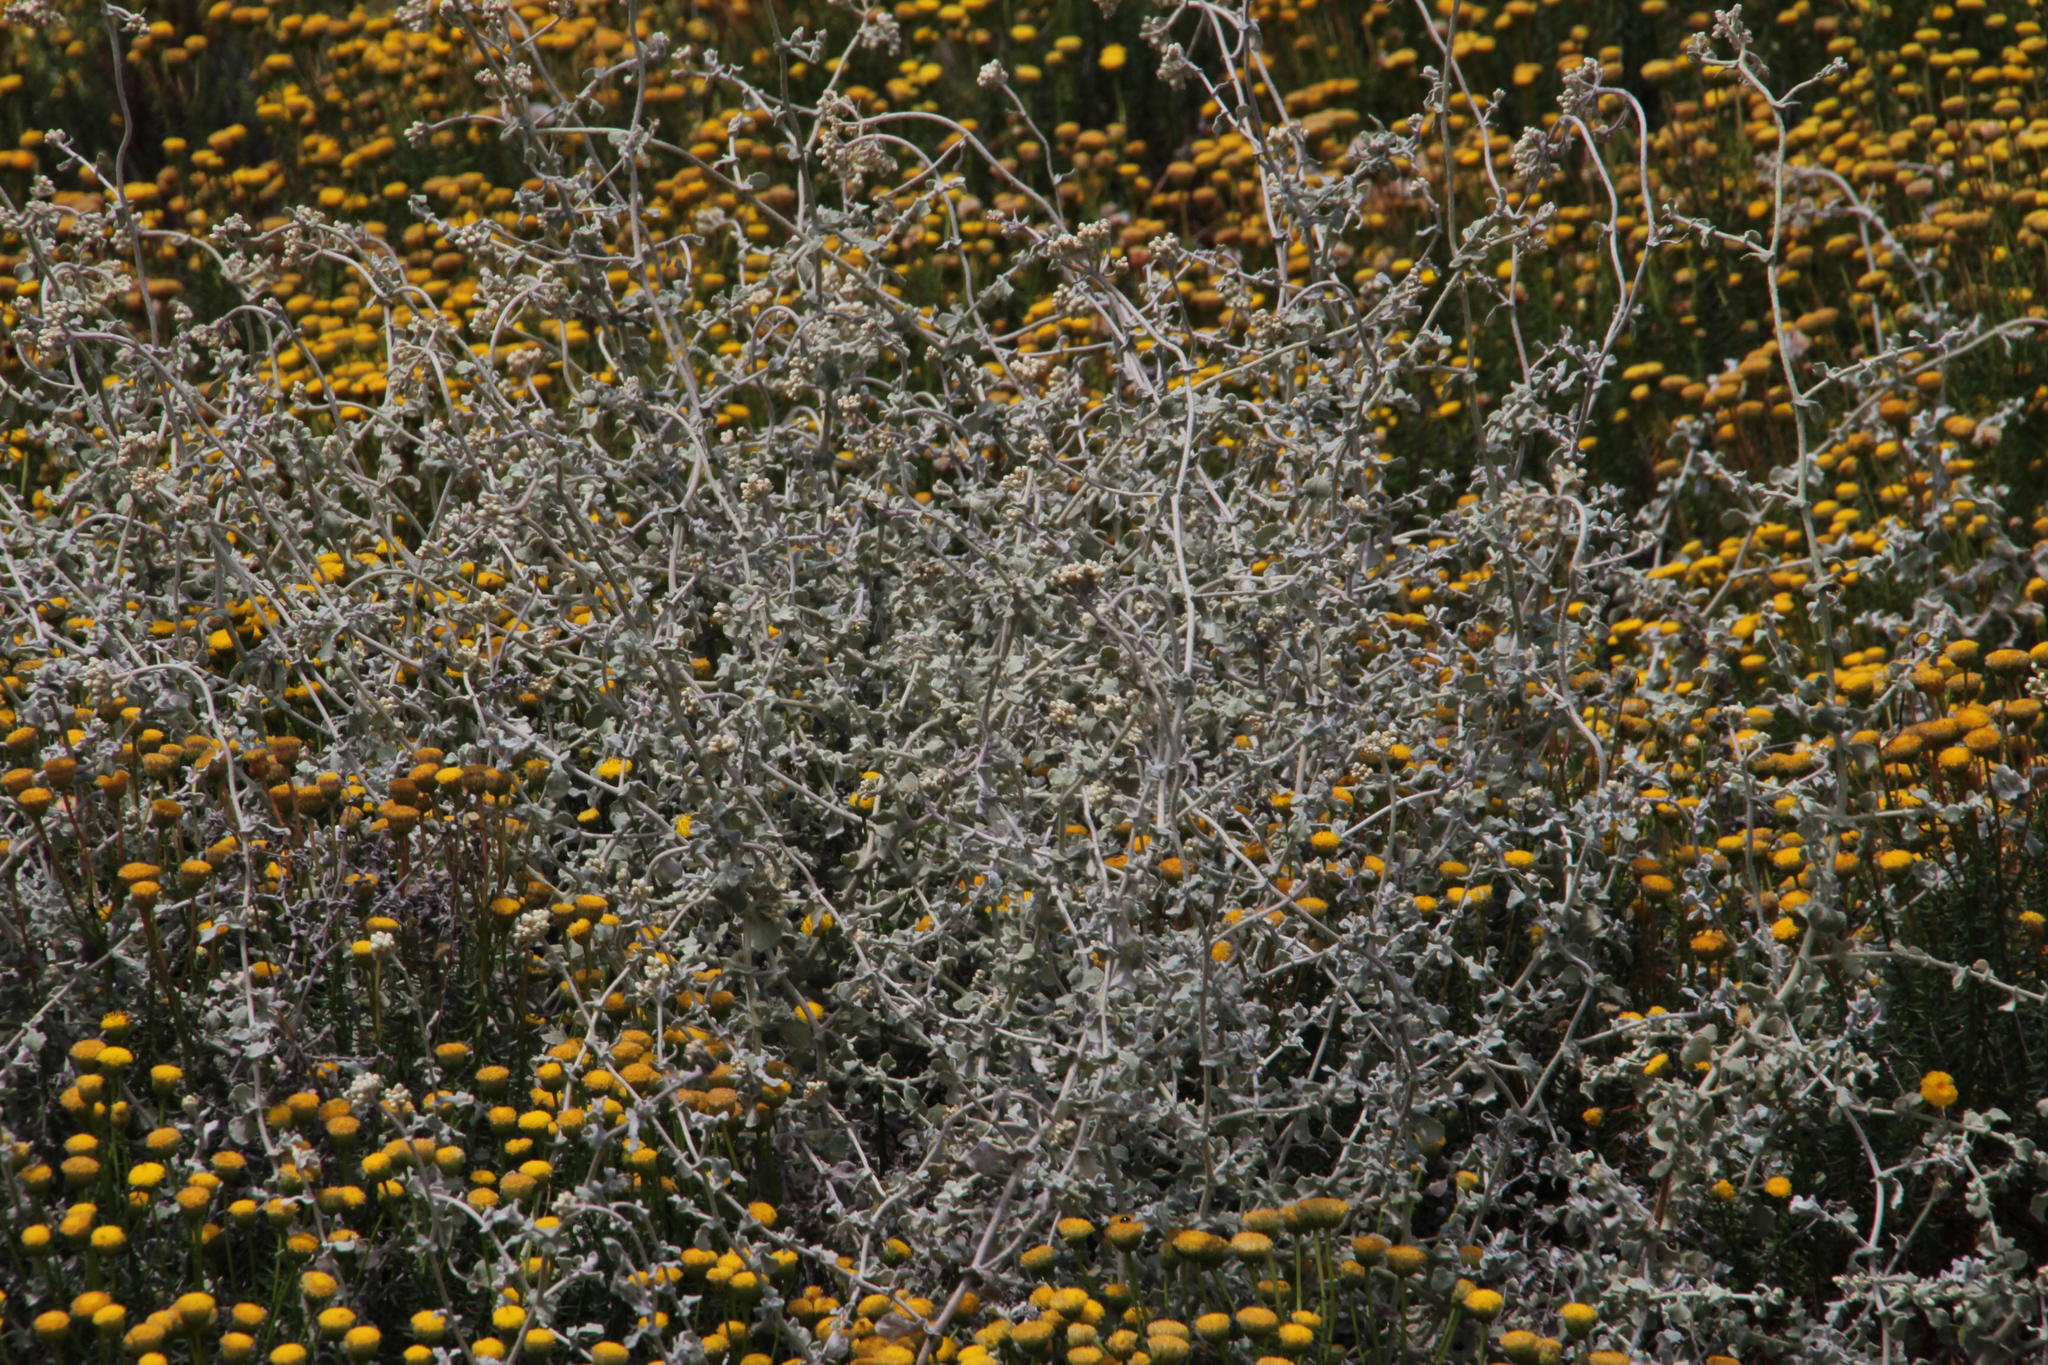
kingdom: Plantae
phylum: Tracheophyta
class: Magnoliopsida
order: Asterales
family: Asteraceae
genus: Helichrysum
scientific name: Helichrysum patulum
